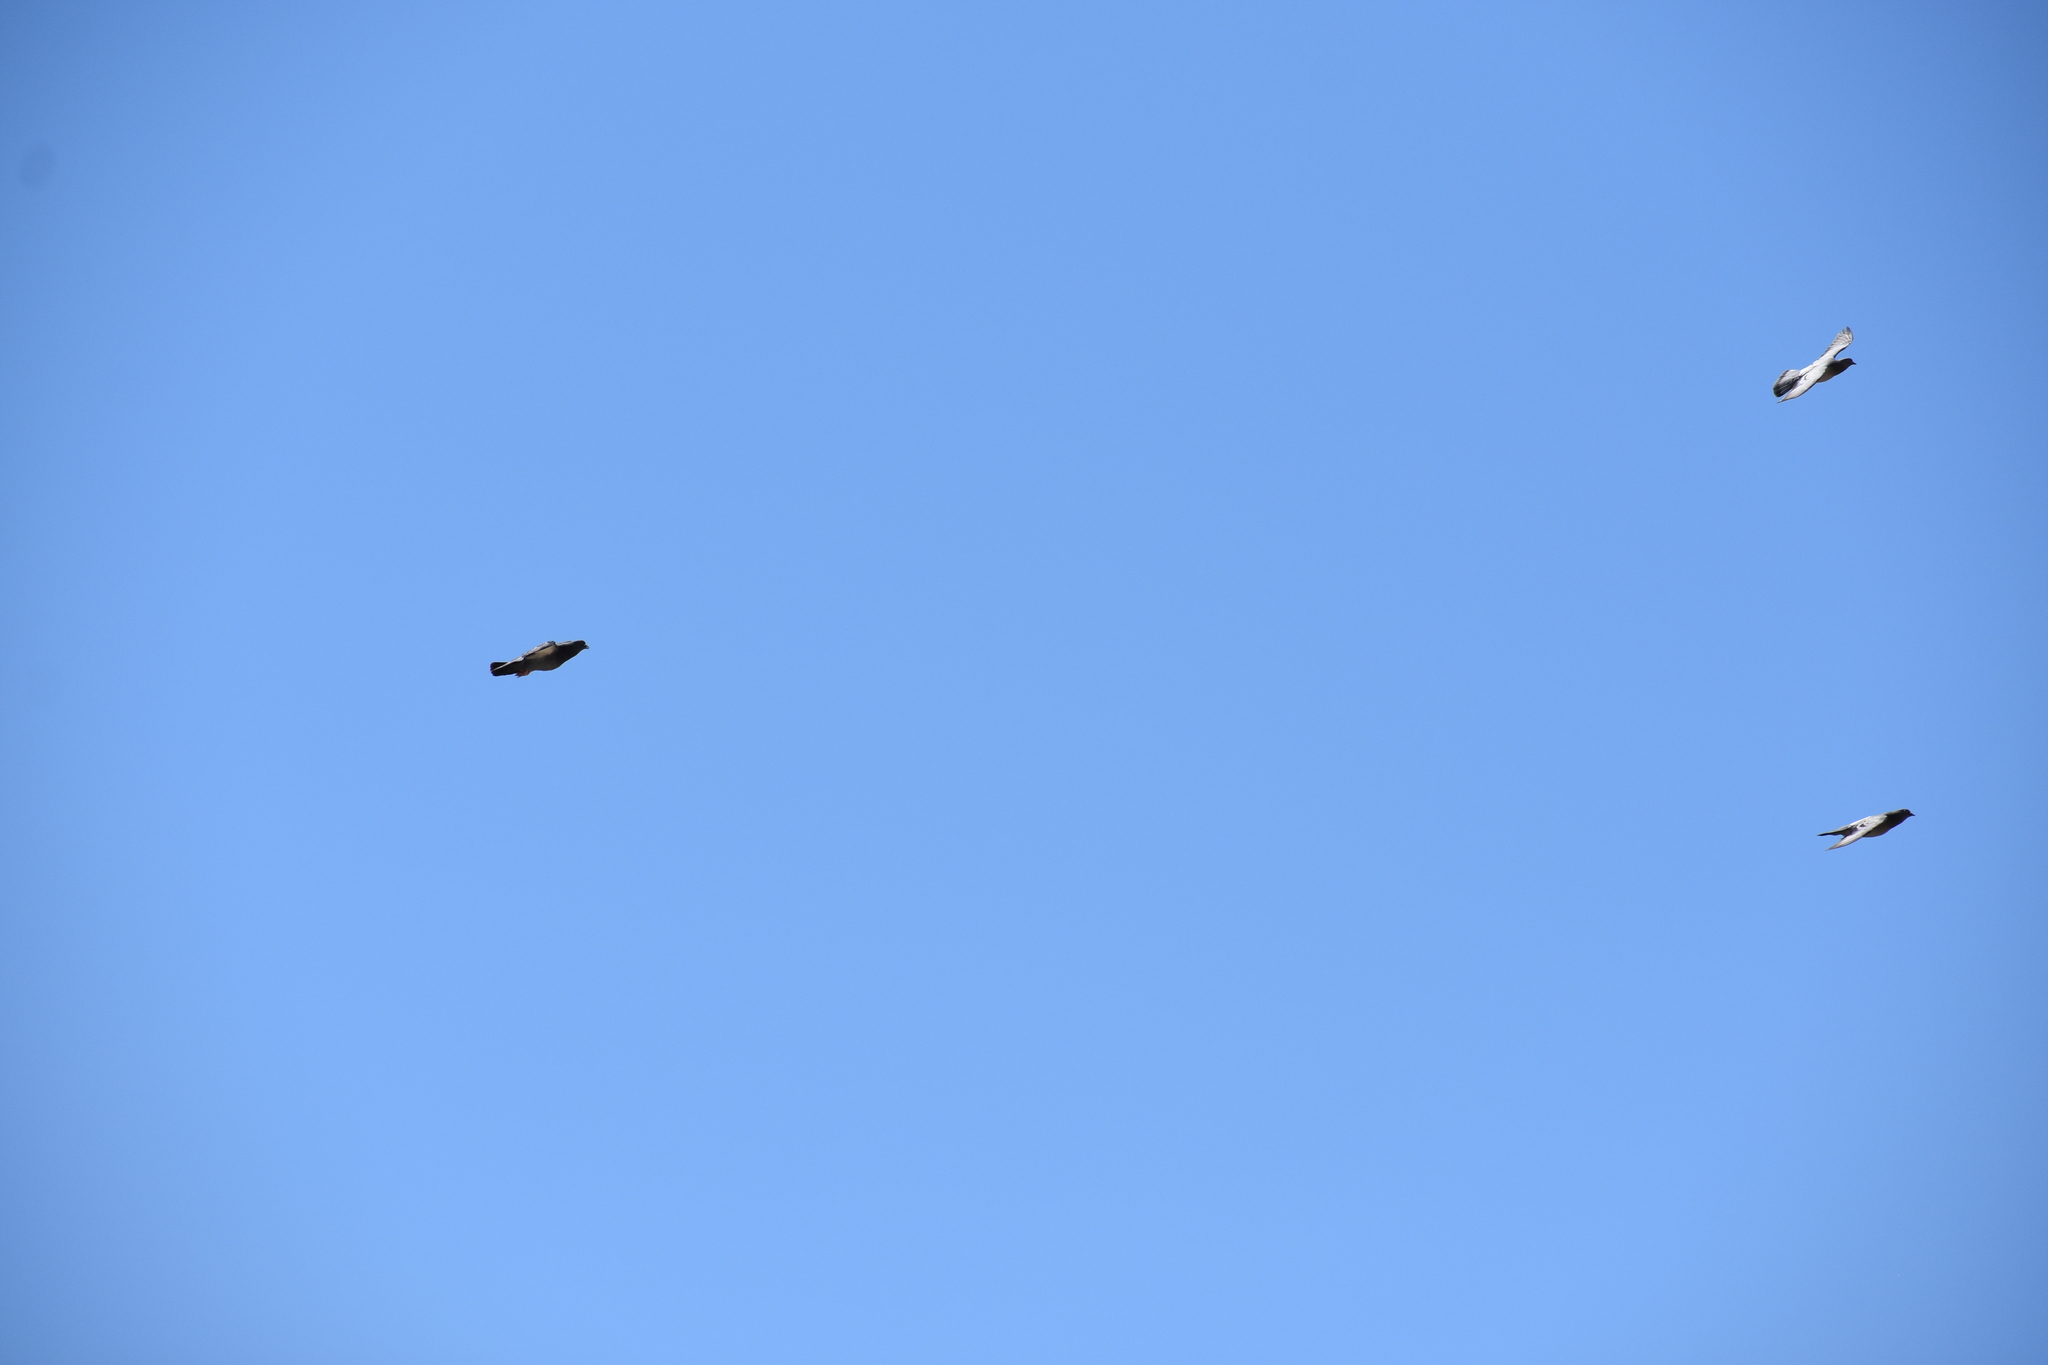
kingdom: Animalia
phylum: Chordata
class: Aves
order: Columbiformes
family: Columbidae
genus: Columba
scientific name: Columba livia
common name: Rock pigeon
